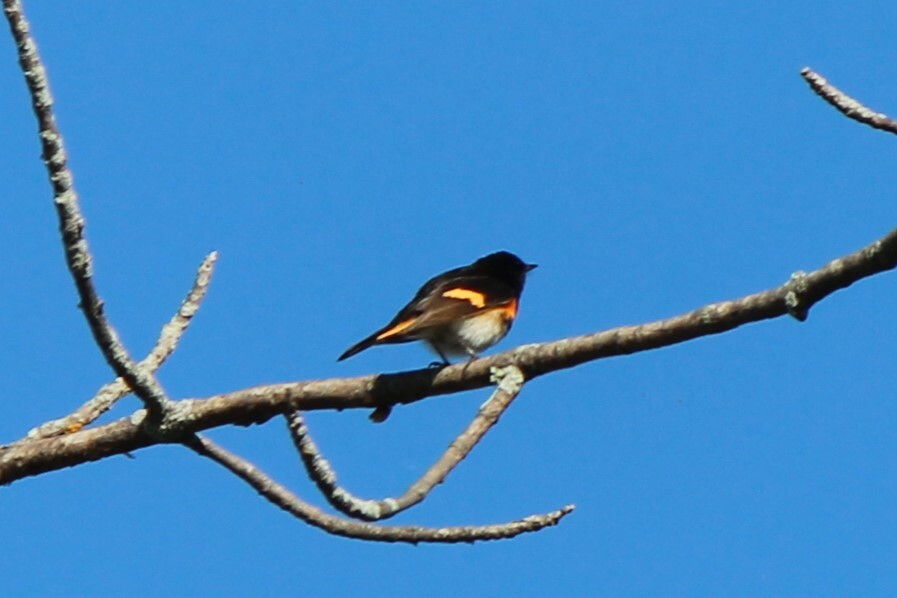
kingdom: Animalia
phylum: Chordata
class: Aves
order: Passeriformes
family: Parulidae
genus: Setophaga
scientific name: Setophaga ruticilla
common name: American redstart
